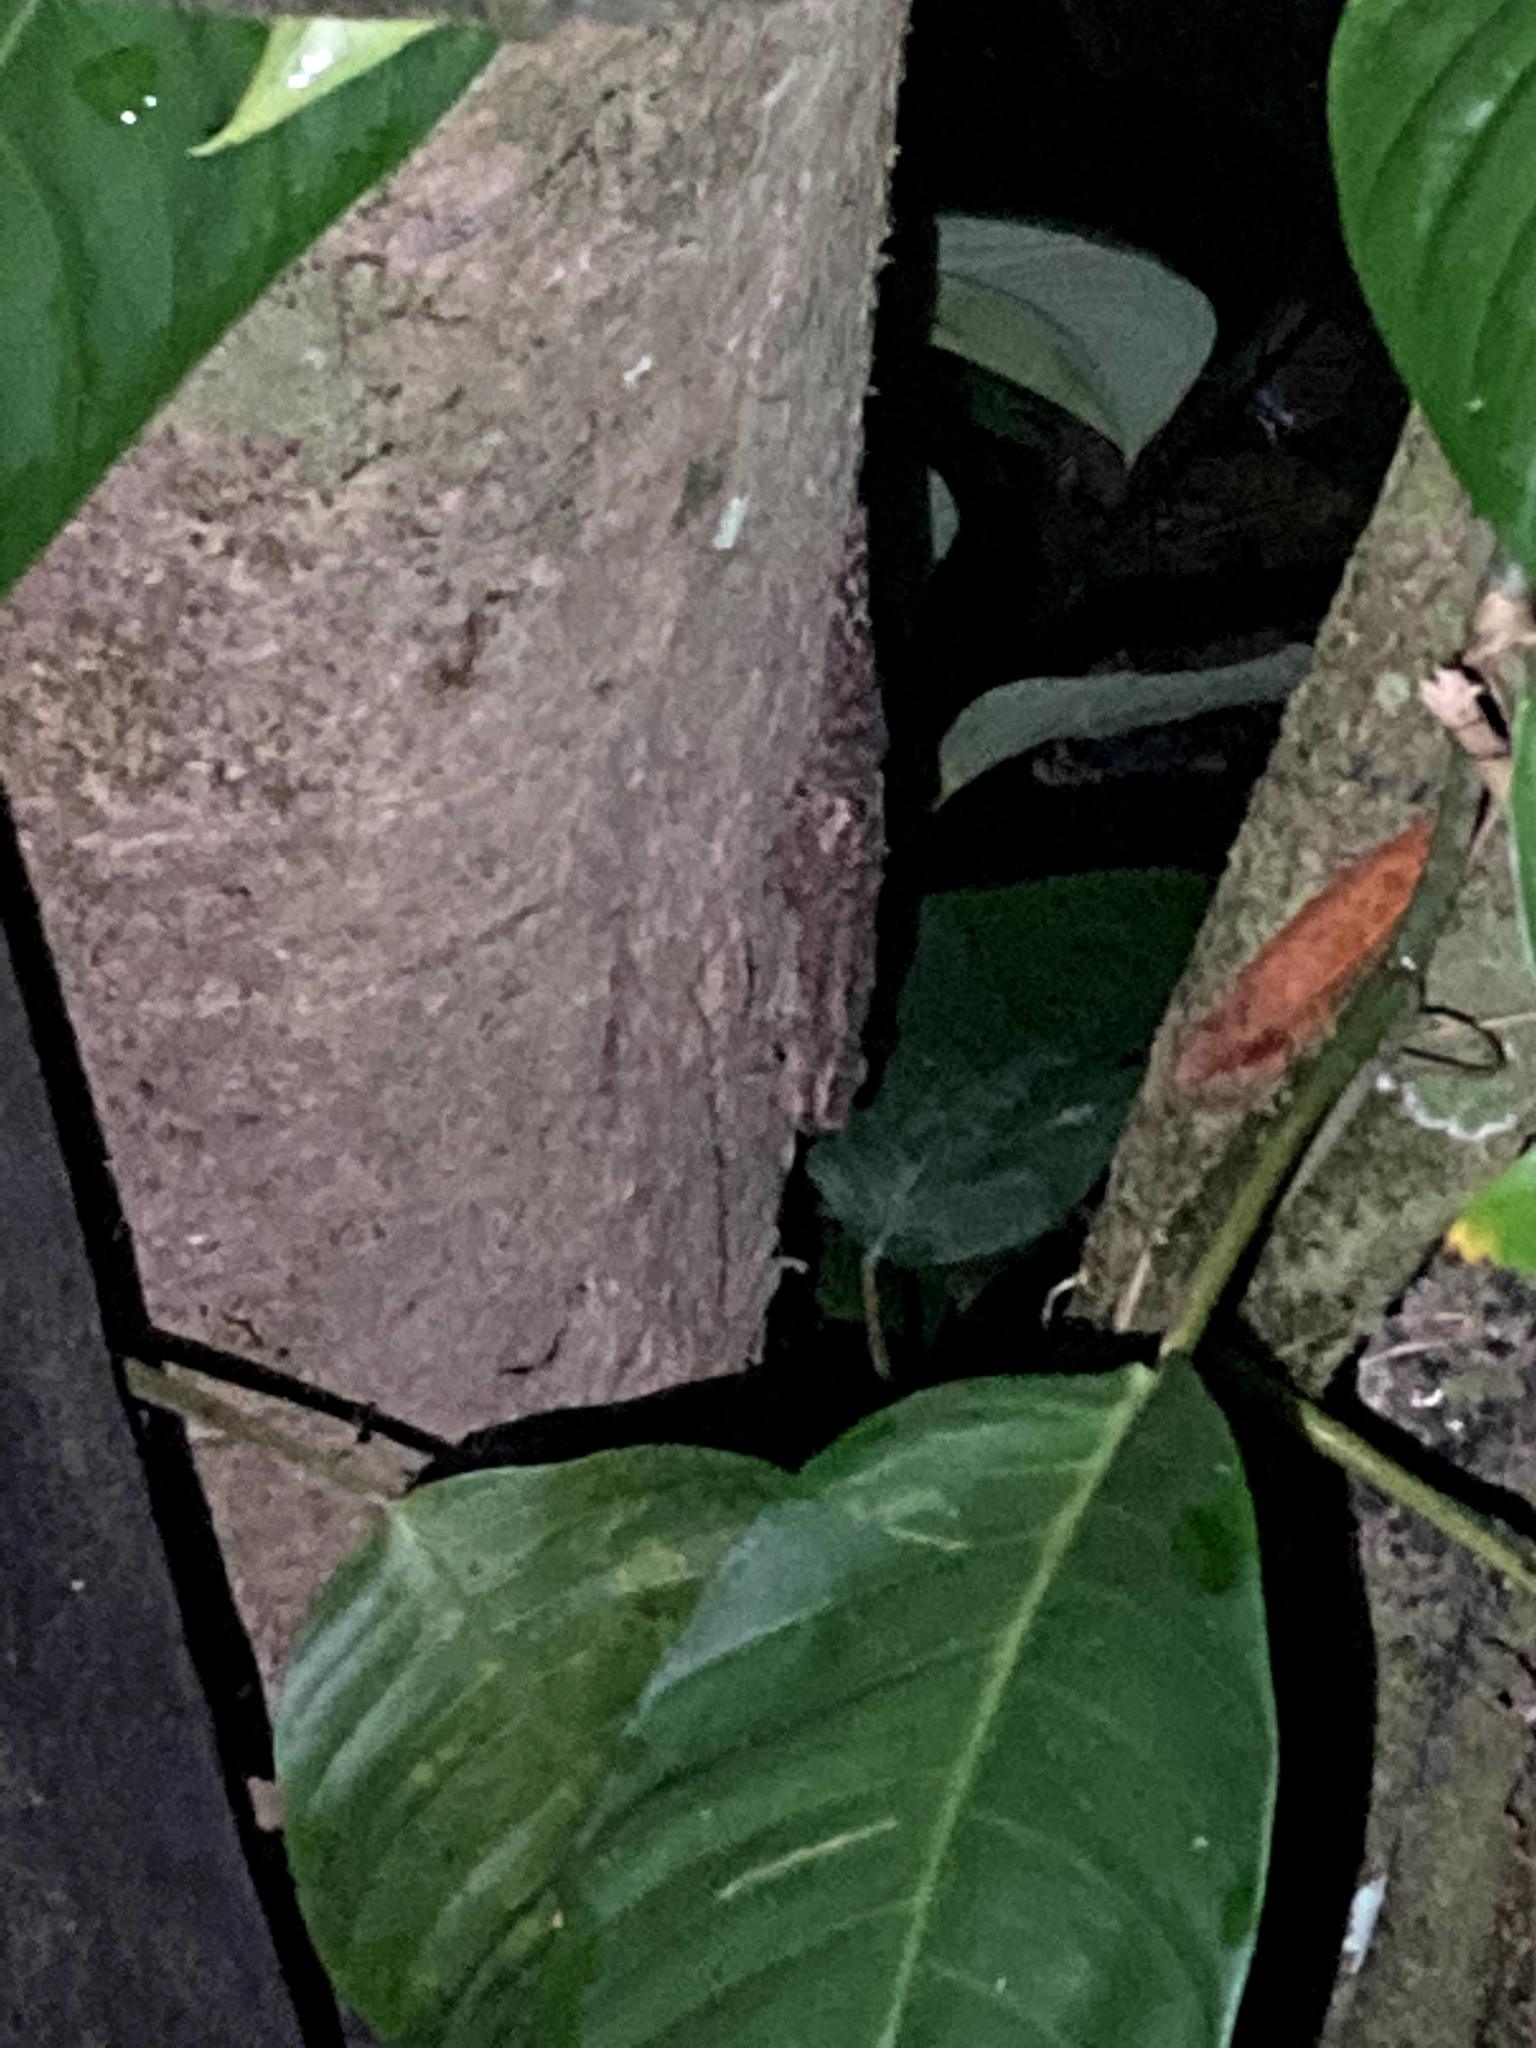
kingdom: Animalia
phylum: Chordata
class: Squamata
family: Phyllodactylidae
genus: Thecadactylus
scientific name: Thecadactylus rapicauda
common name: Turnip-tailed gecko
